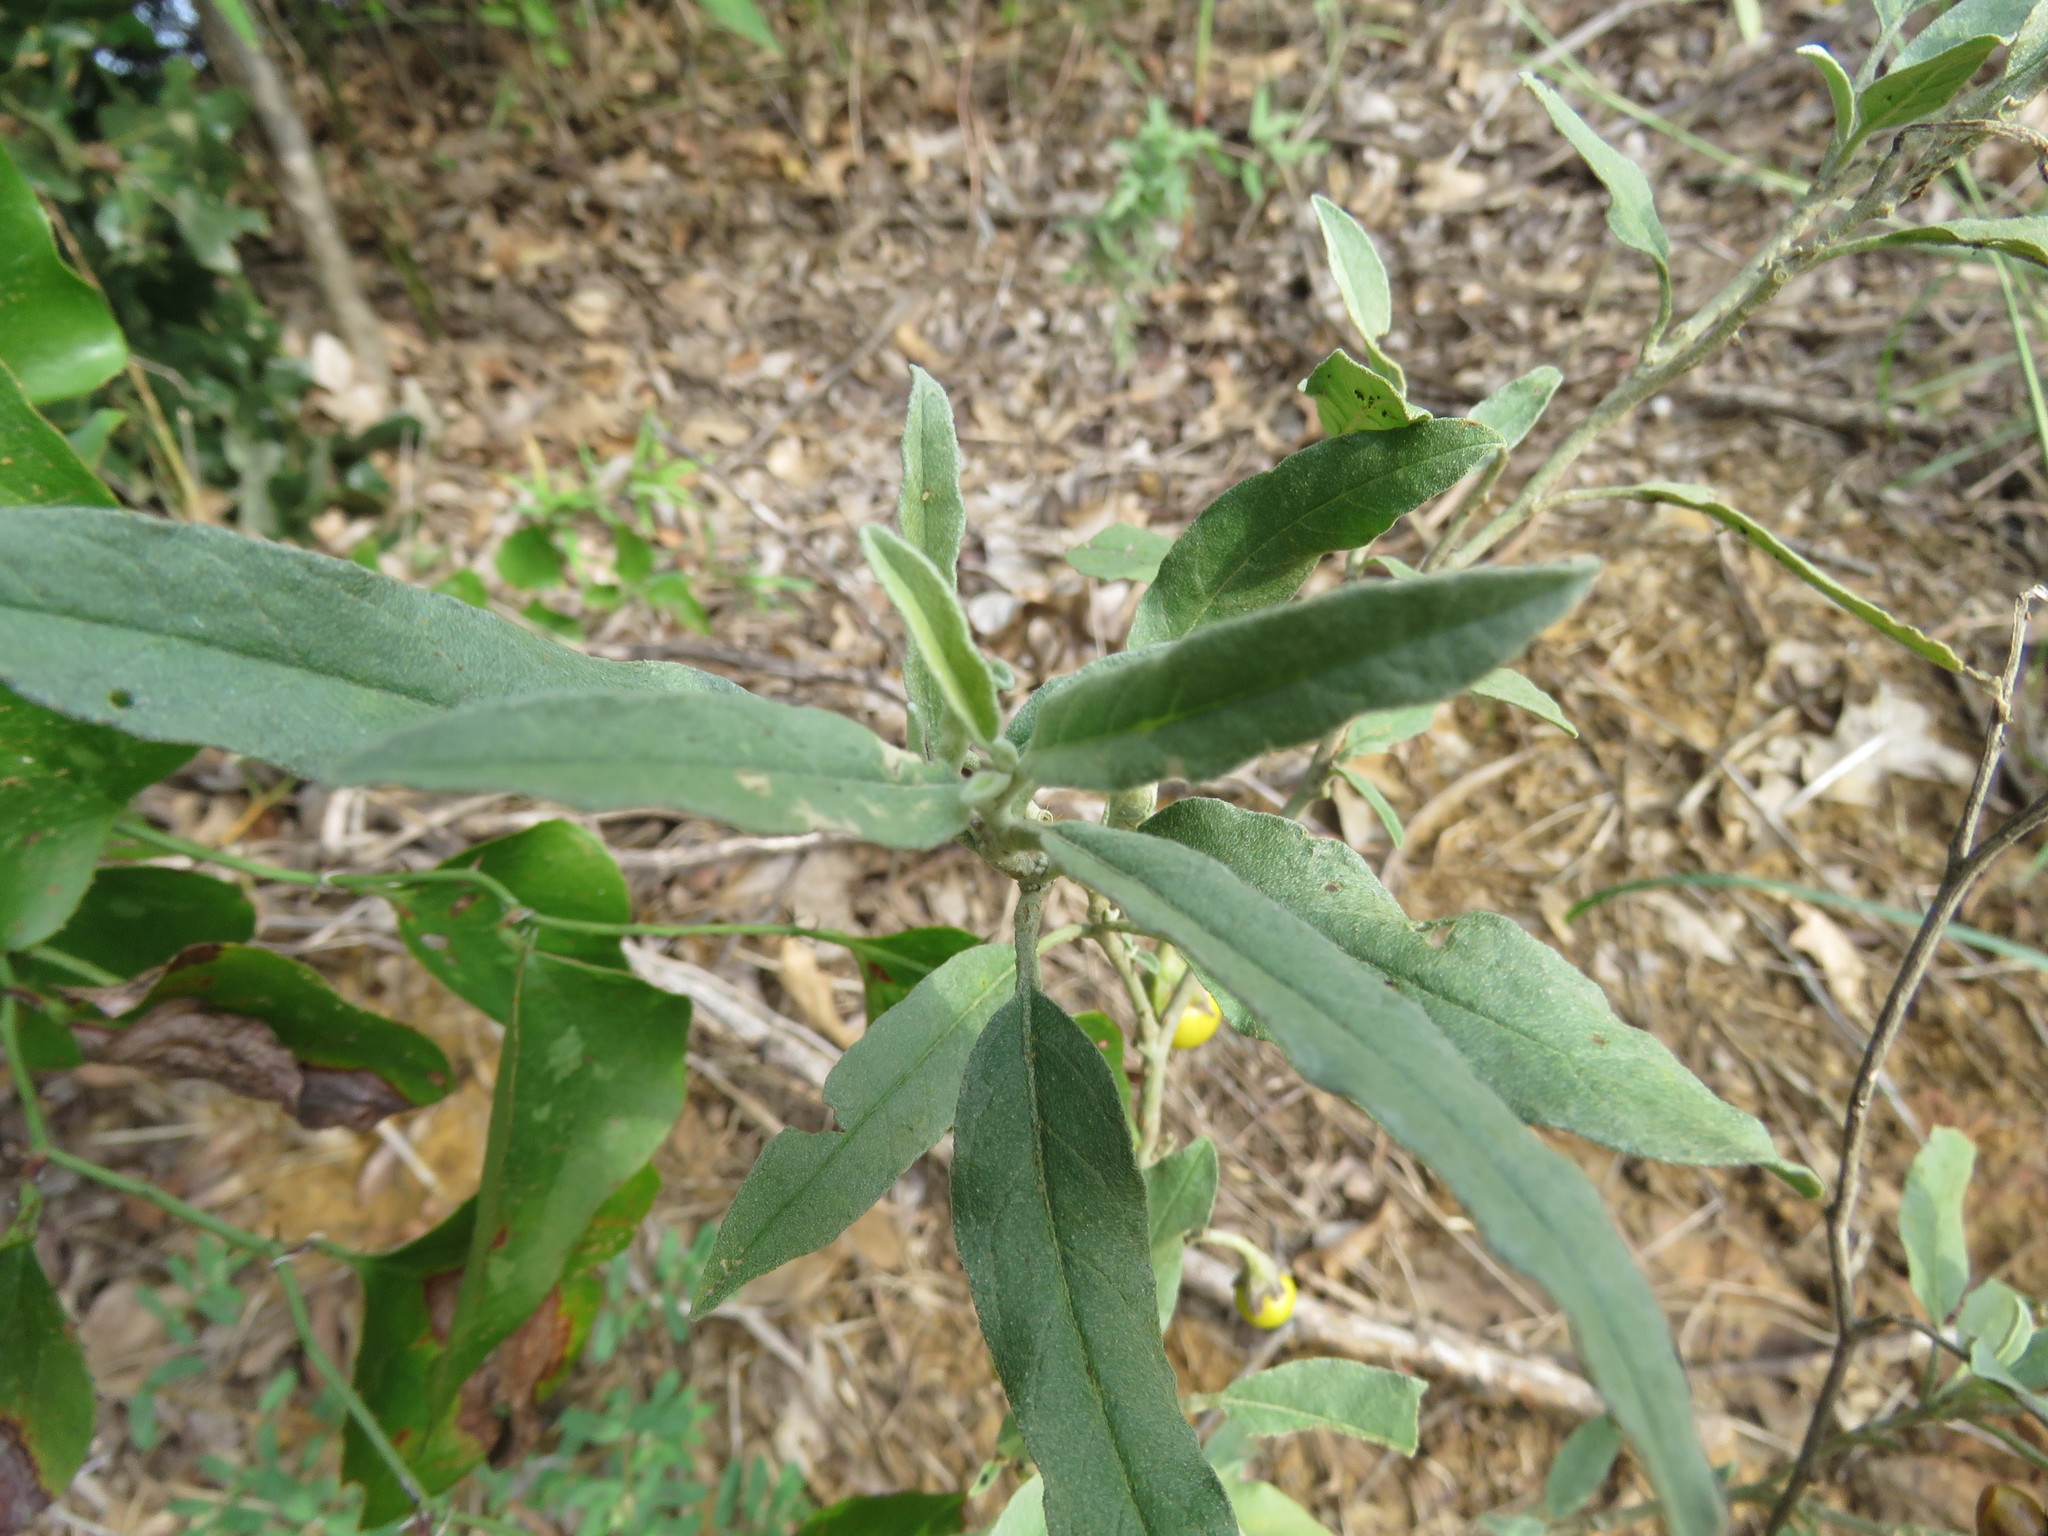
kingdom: Plantae
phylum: Tracheophyta
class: Magnoliopsida
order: Solanales
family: Solanaceae
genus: Solanum
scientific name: Solanum elaeagnifolium
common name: Silverleaf nightshade
